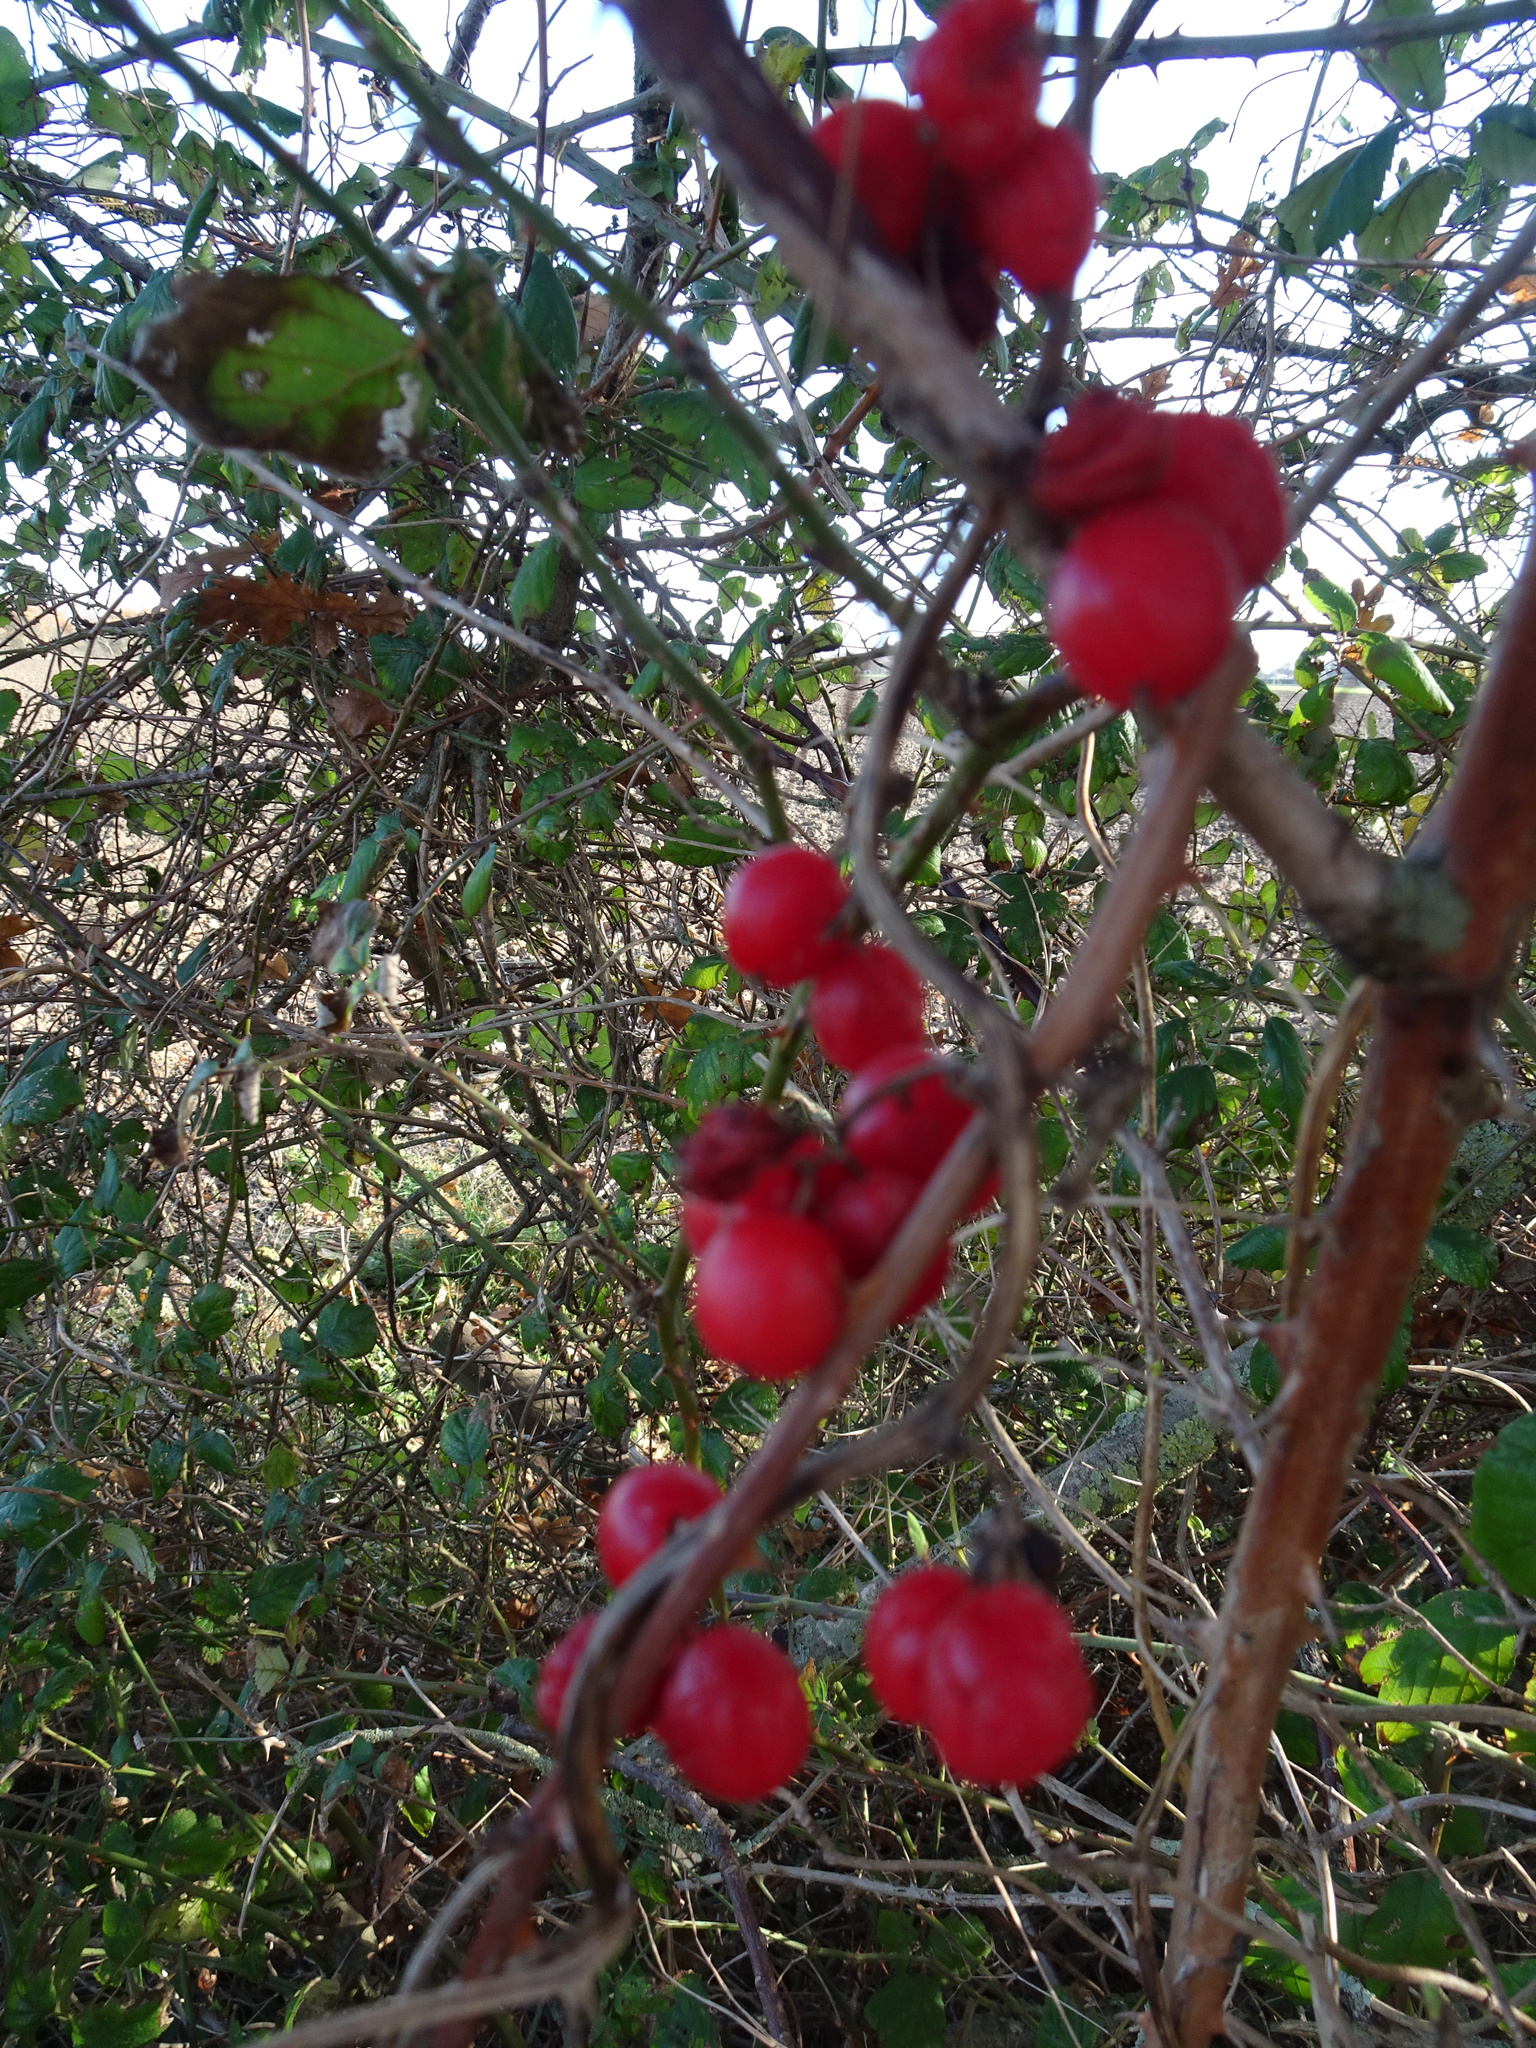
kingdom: Plantae
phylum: Tracheophyta
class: Liliopsida
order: Dioscoreales
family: Dioscoreaceae
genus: Dioscorea
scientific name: Dioscorea communis
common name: Black-bindweed
